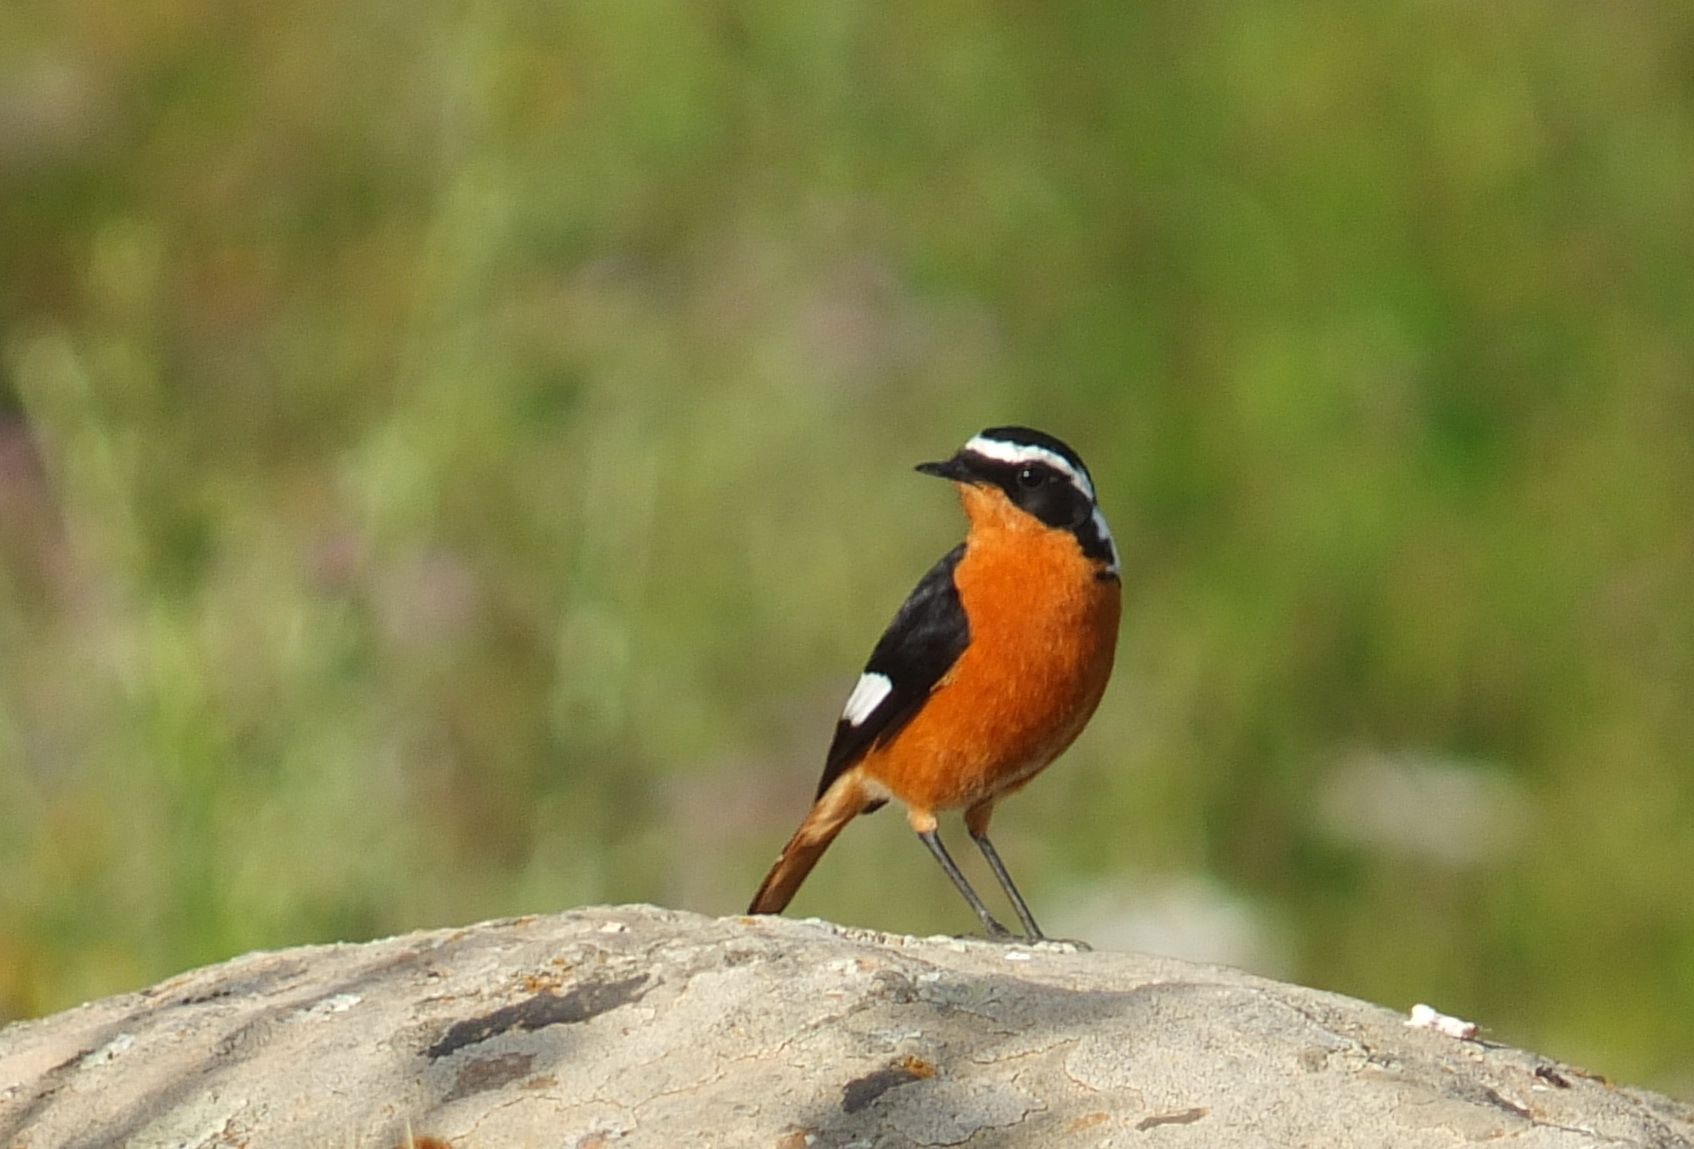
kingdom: Animalia
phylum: Chordata
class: Aves
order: Passeriformes
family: Muscicapidae
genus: Phoenicurus
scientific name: Phoenicurus moussieri
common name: Moussier's redstart
